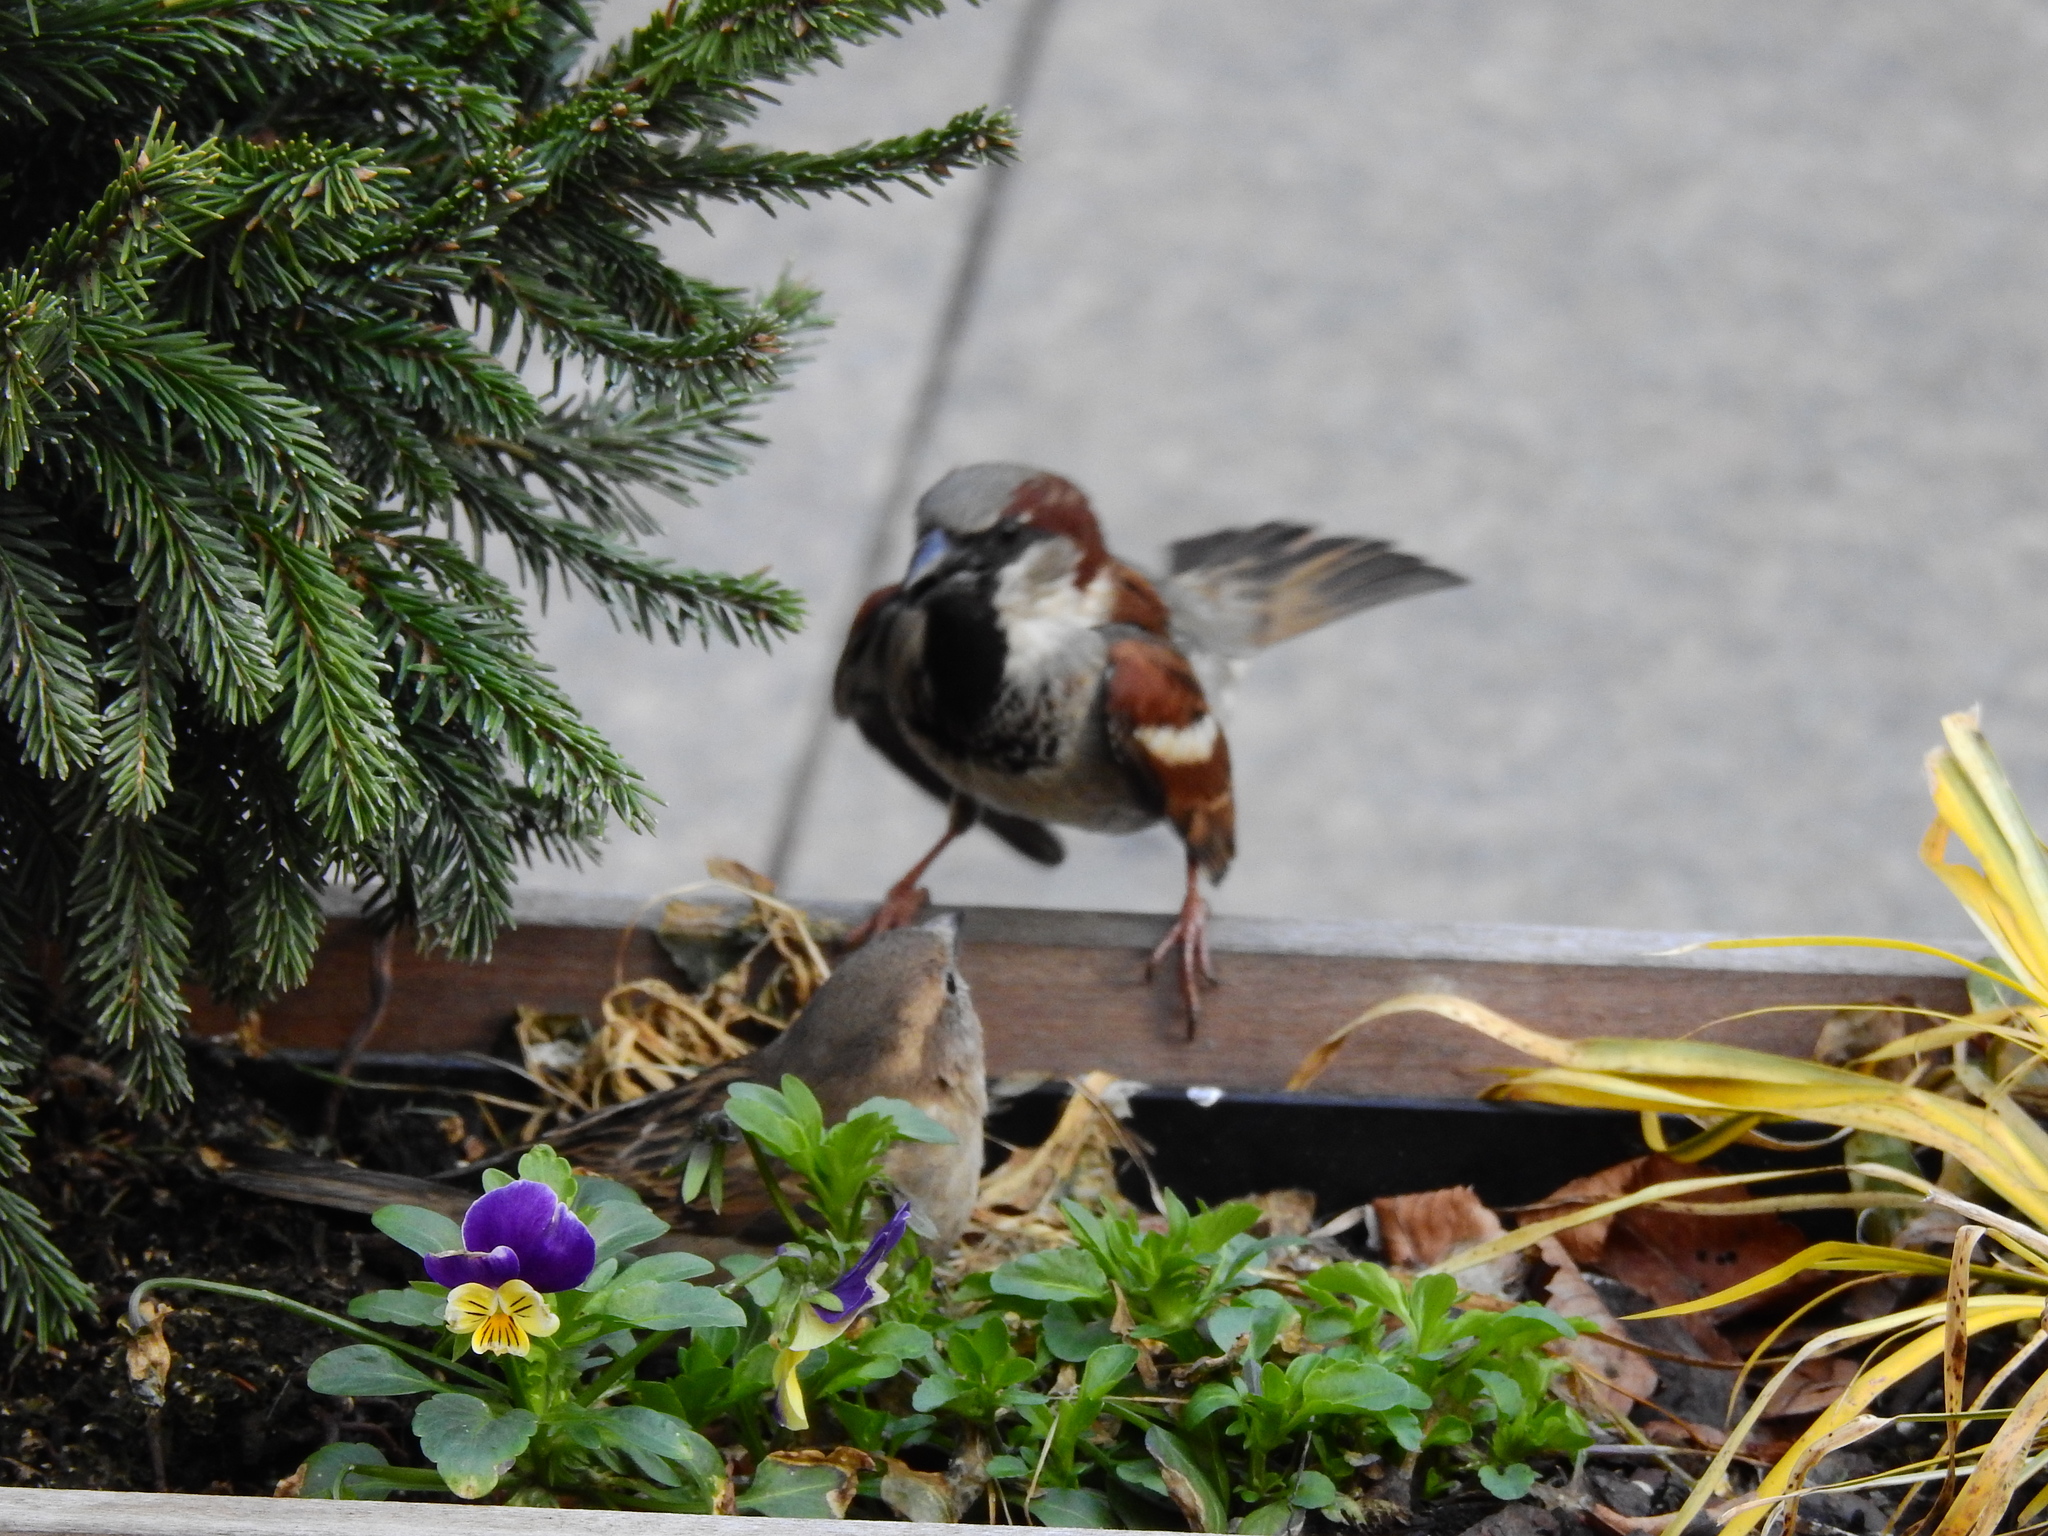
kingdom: Animalia
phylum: Chordata
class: Aves
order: Passeriformes
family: Passeridae
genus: Passer
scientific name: Passer domesticus
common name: House sparrow
